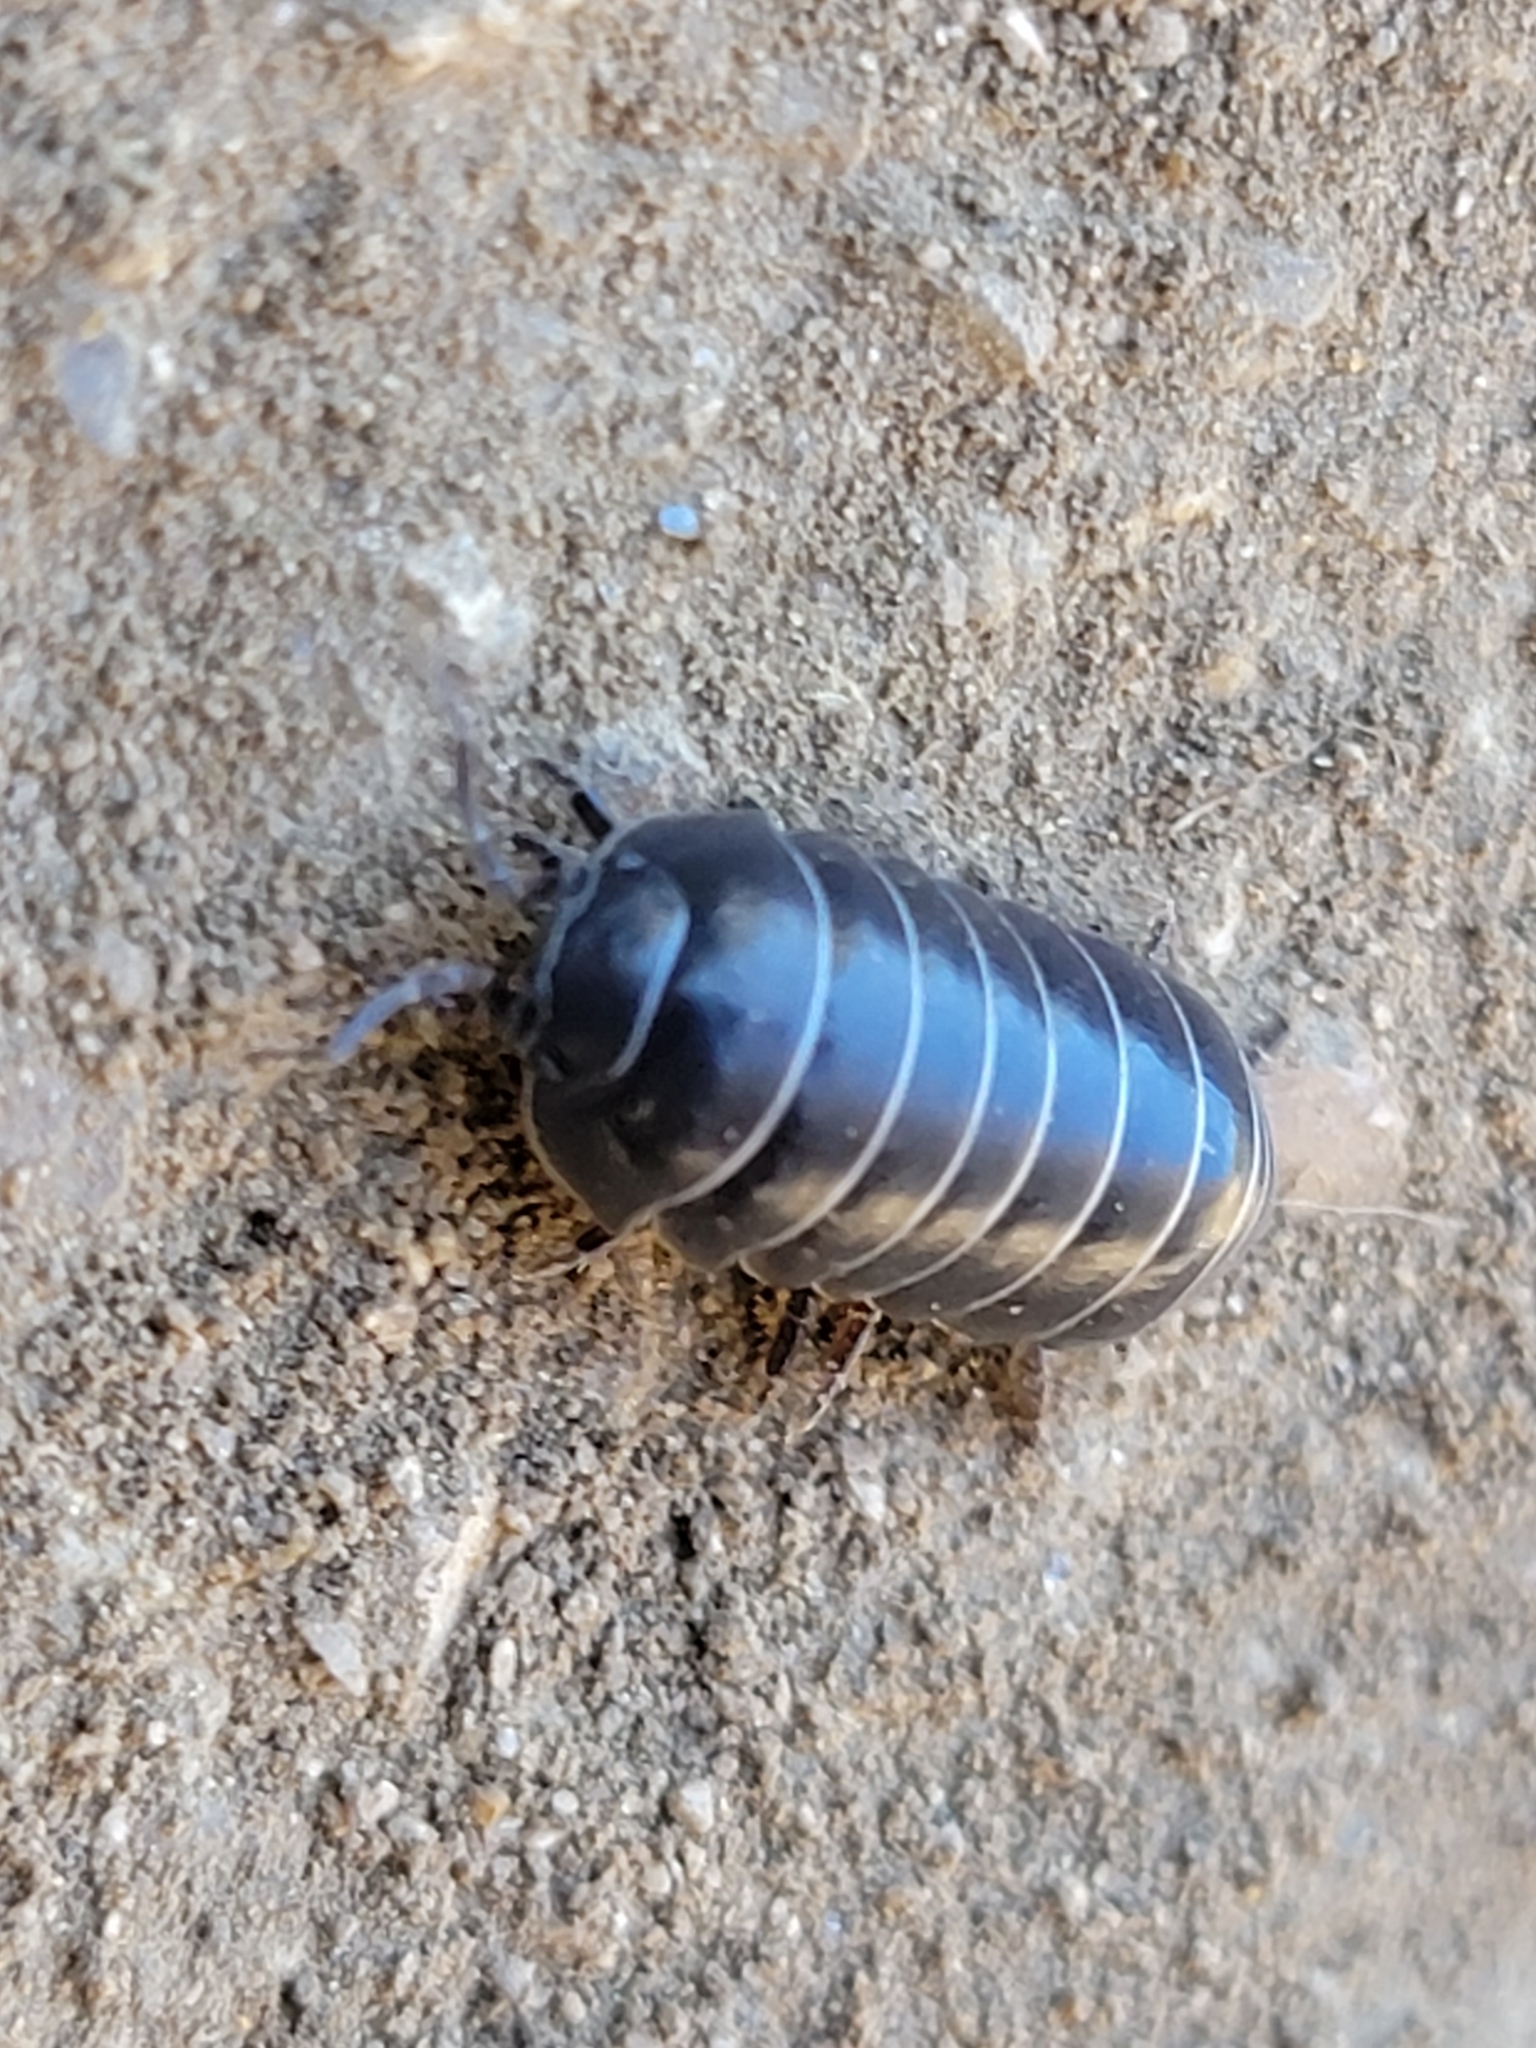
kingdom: Animalia
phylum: Arthropoda
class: Malacostraca
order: Isopoda
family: Armadillidiidae
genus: Armadillidium
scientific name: Armadillidium vulgare
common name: Common pill woodlouse
